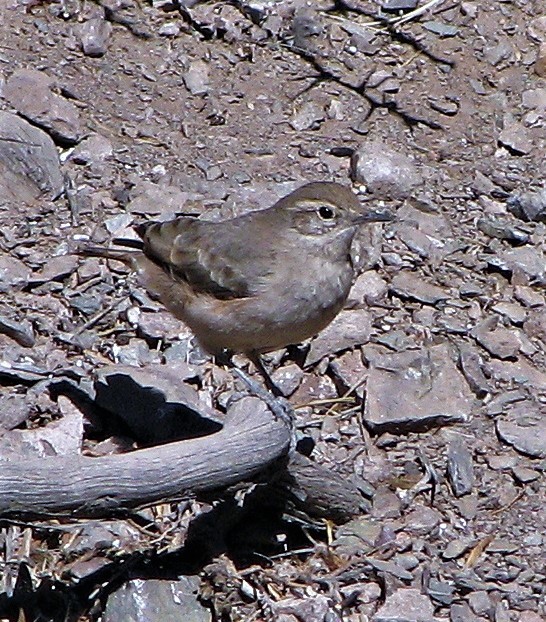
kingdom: Animalia
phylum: Chordata
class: Aves
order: Passeriformes
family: Furnariidae
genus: Geositta
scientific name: Geositta rufipennis
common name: Rufous-banded miner
